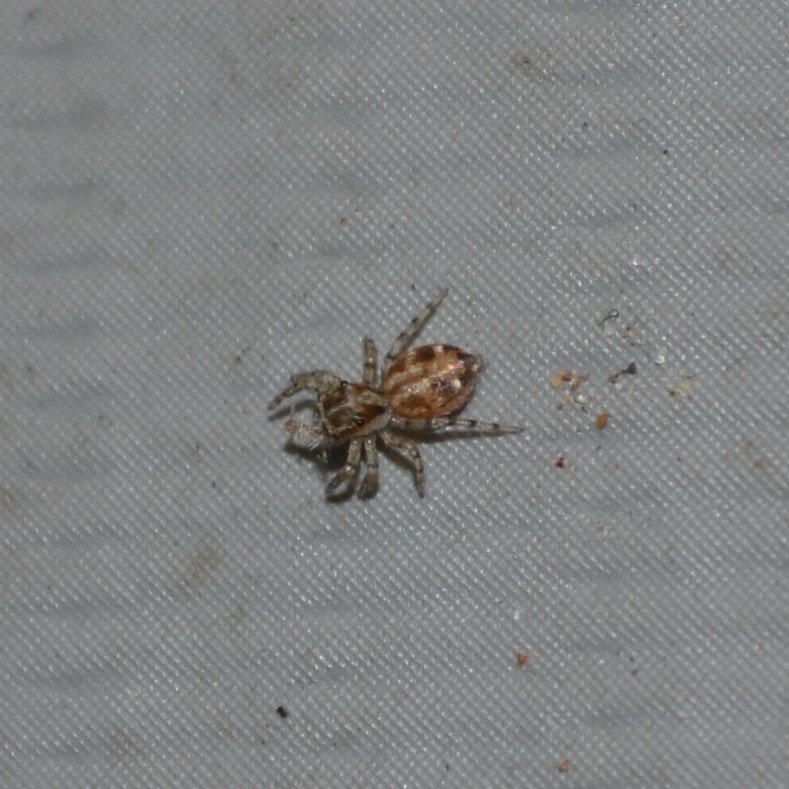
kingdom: Animalia
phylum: Arthropoda
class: Arachnida
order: Araneae
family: Salticidae
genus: Plexippus
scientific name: Plexippus paykulli
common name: Pantropical jumper
